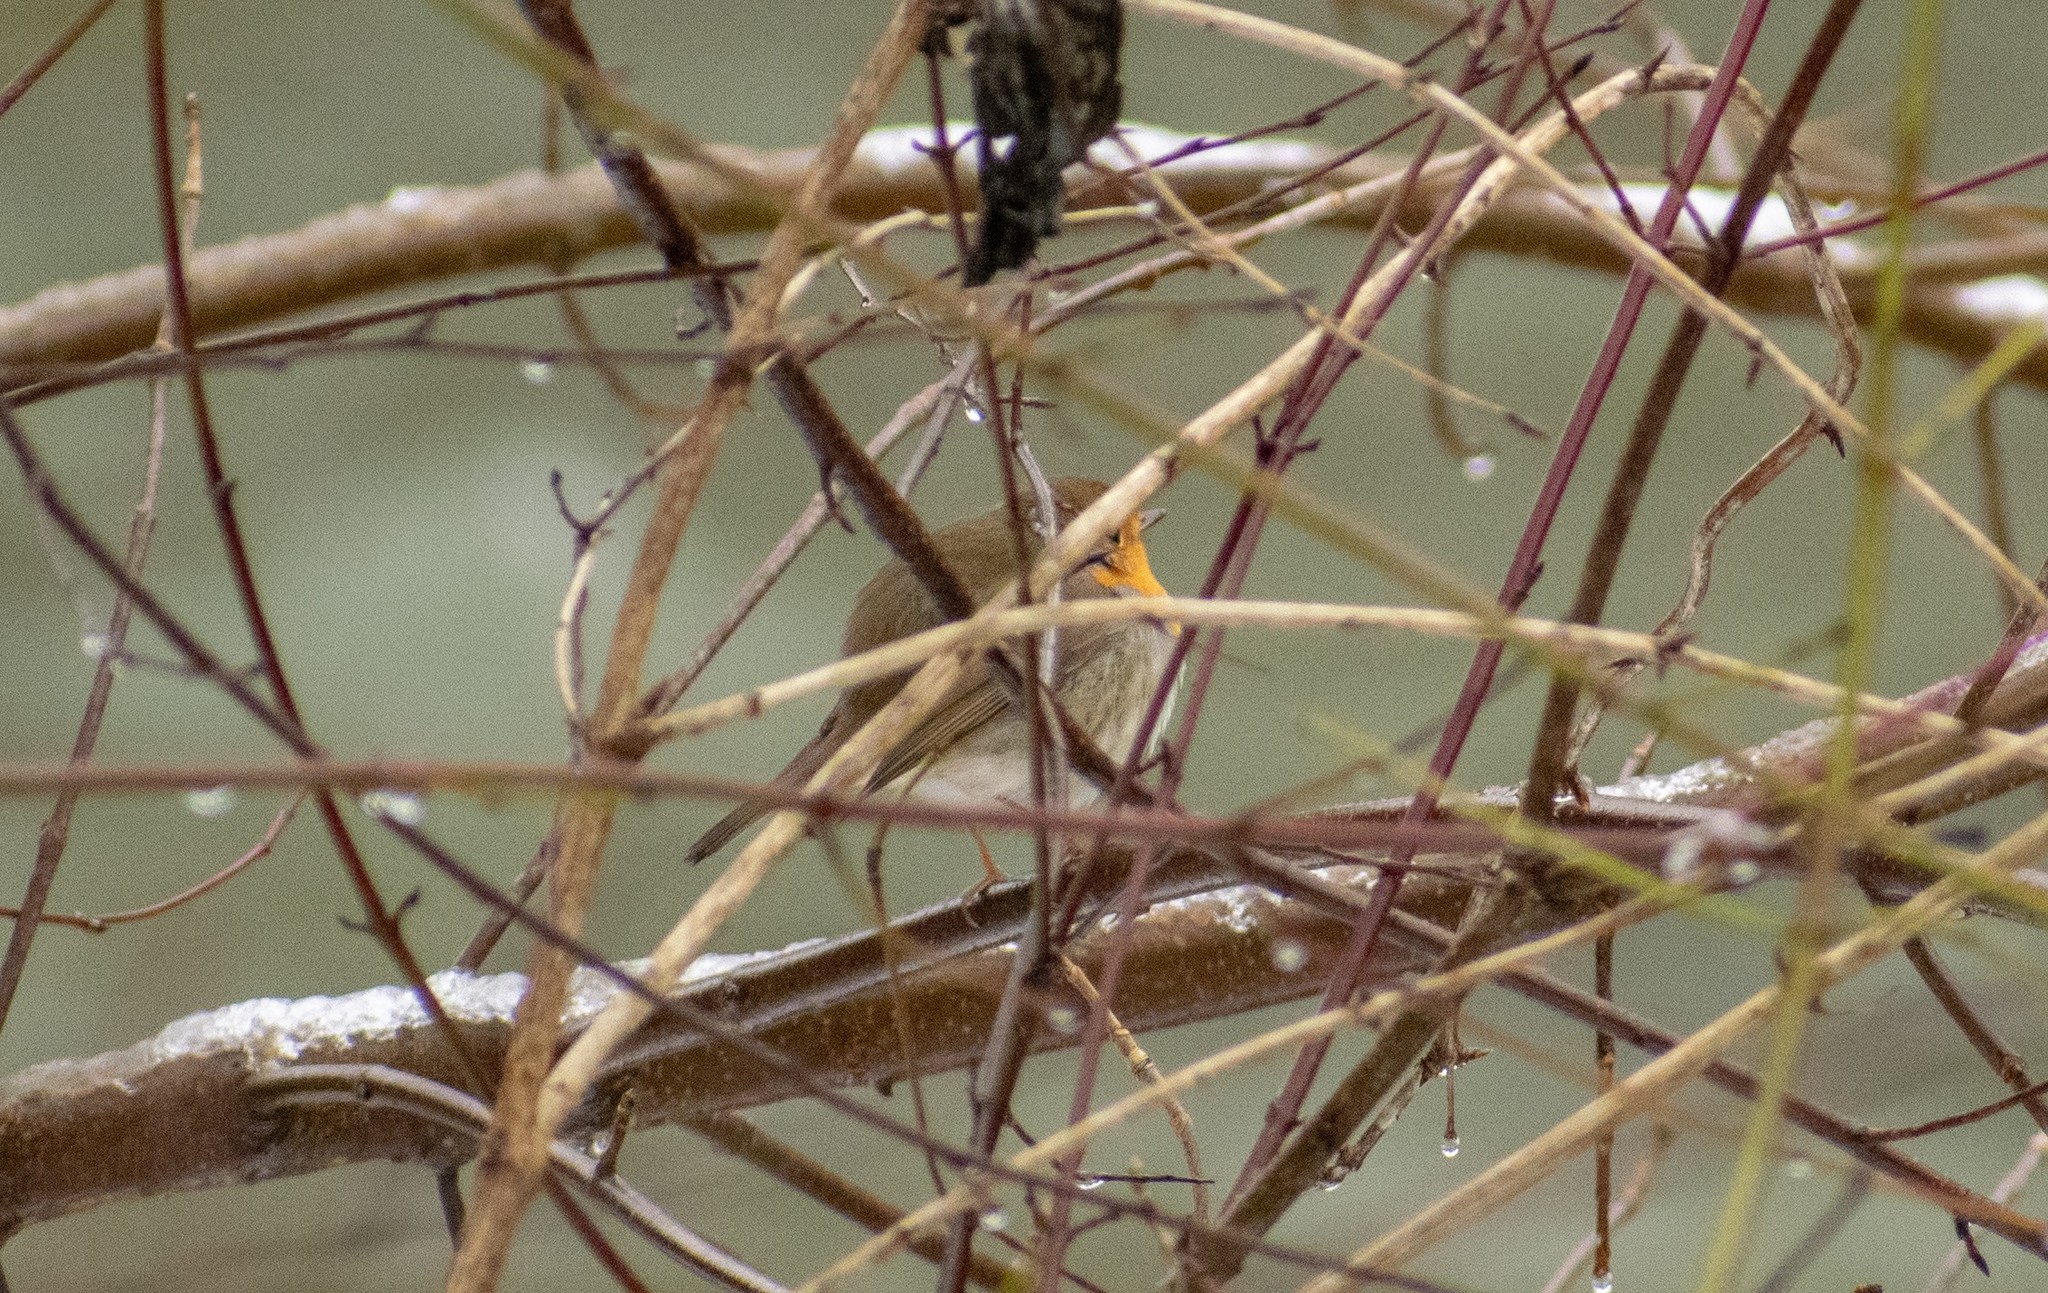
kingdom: Animalia
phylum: Chordata
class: Aves
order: Passeriformes
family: Muscicapidae
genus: Erithacus
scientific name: Erithacus rubecula
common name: European robin
